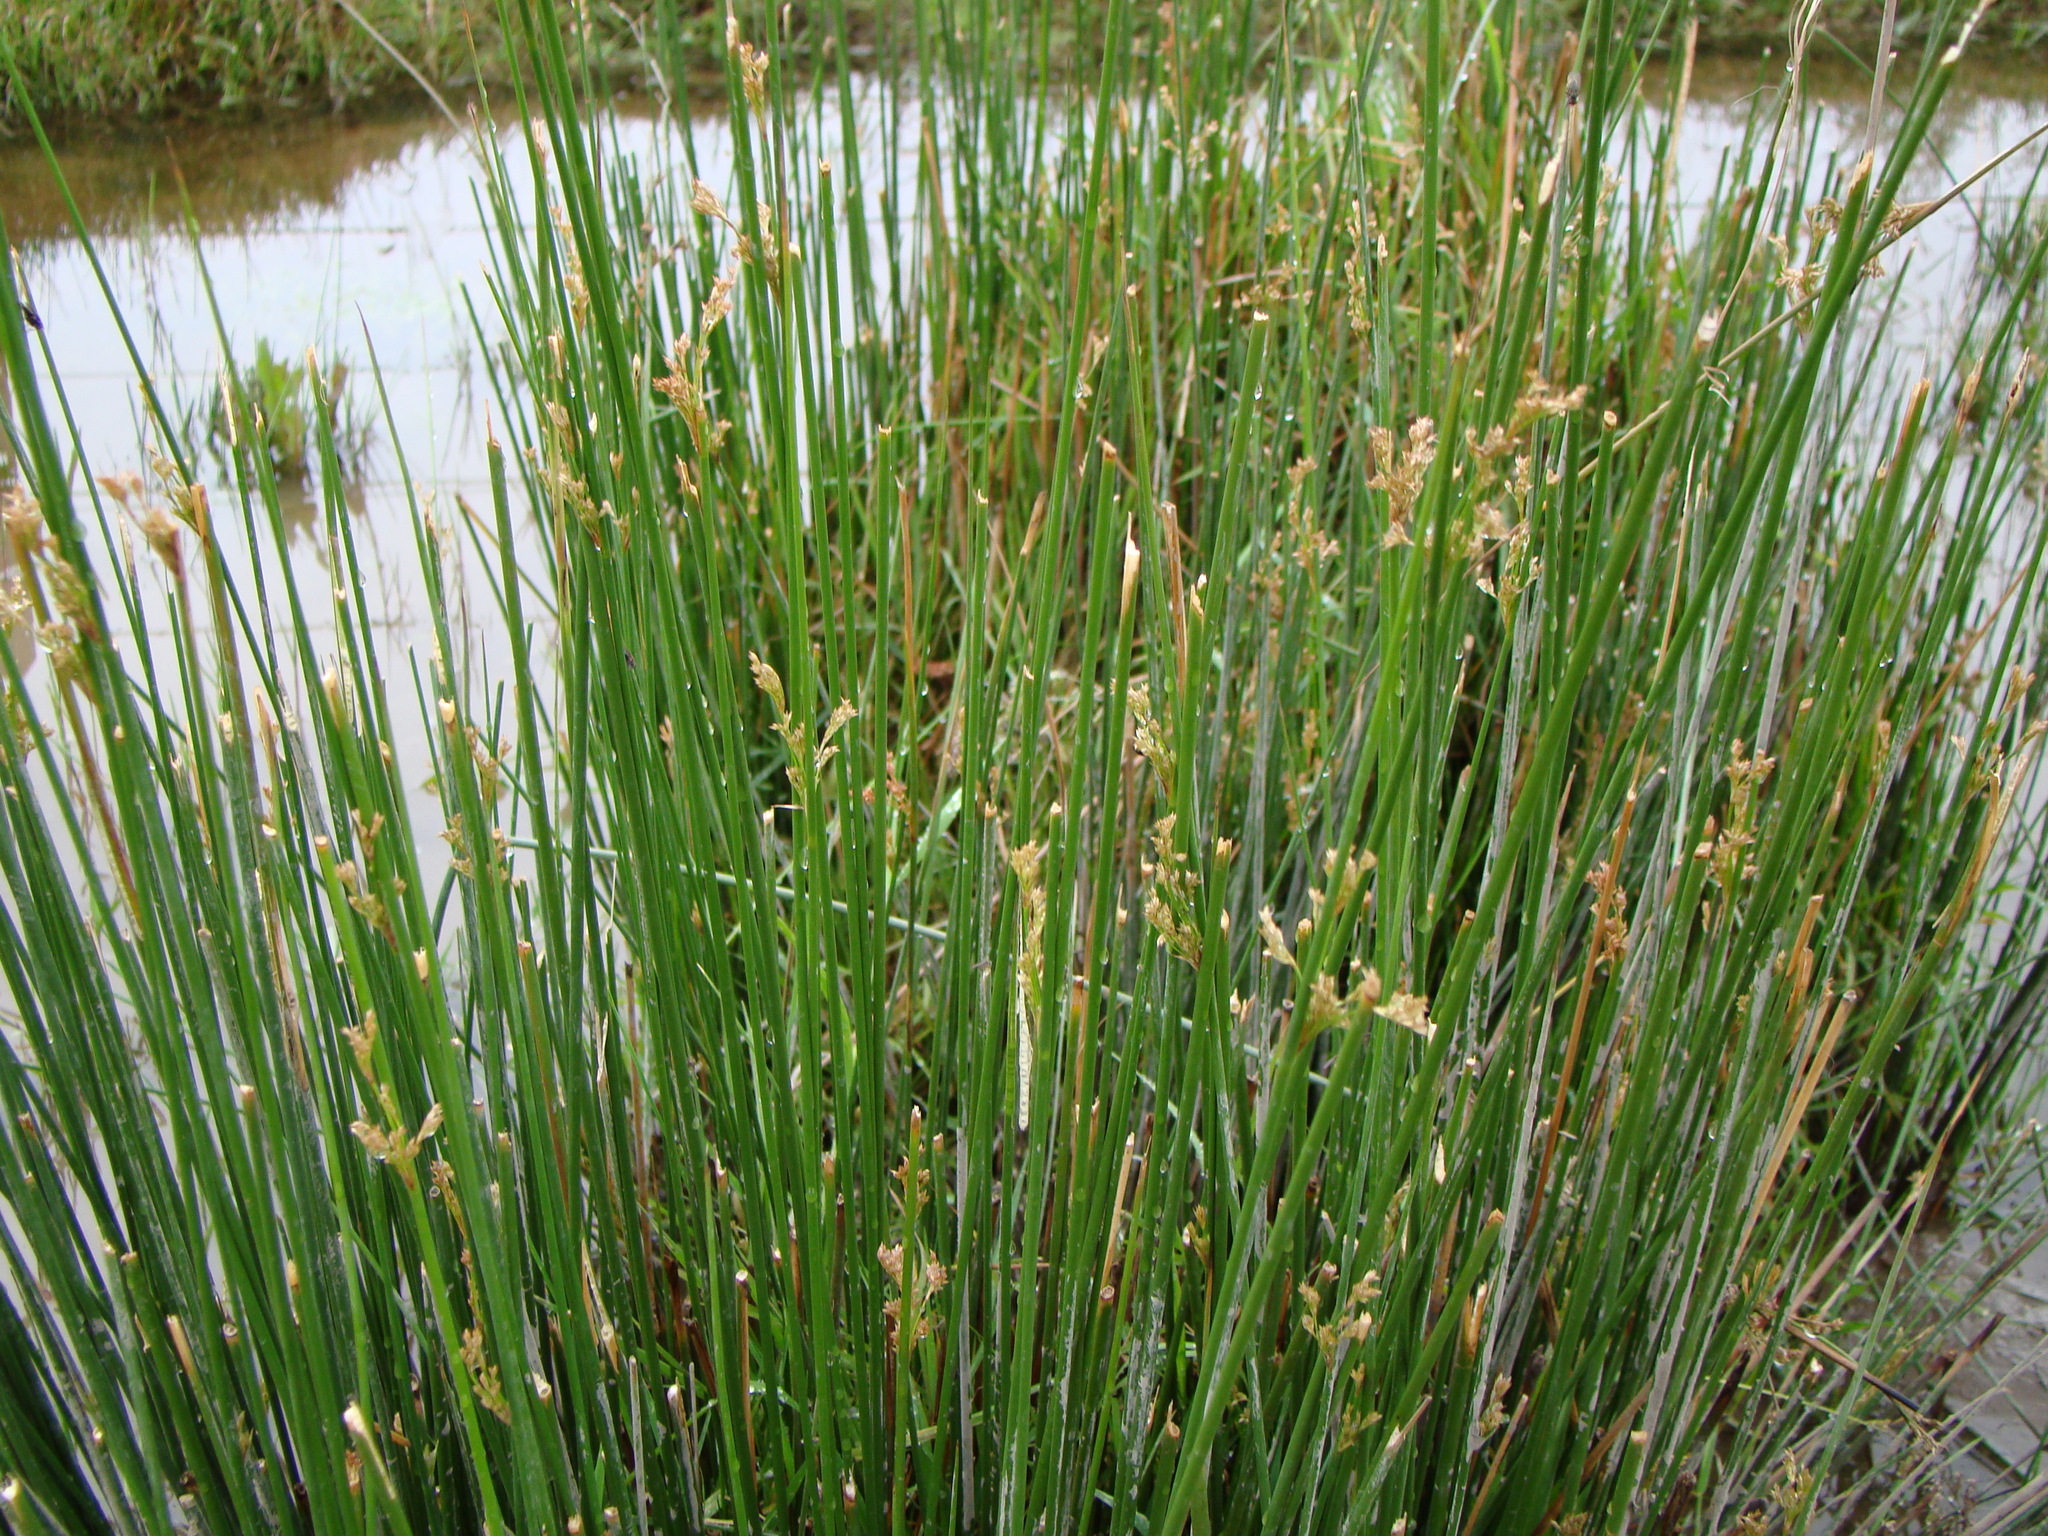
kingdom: Plantae
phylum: Tracheophyta
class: Liliopsida
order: Poales
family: Juncaceae
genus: Juncus
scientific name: Juncus effusus
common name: Soft rush
